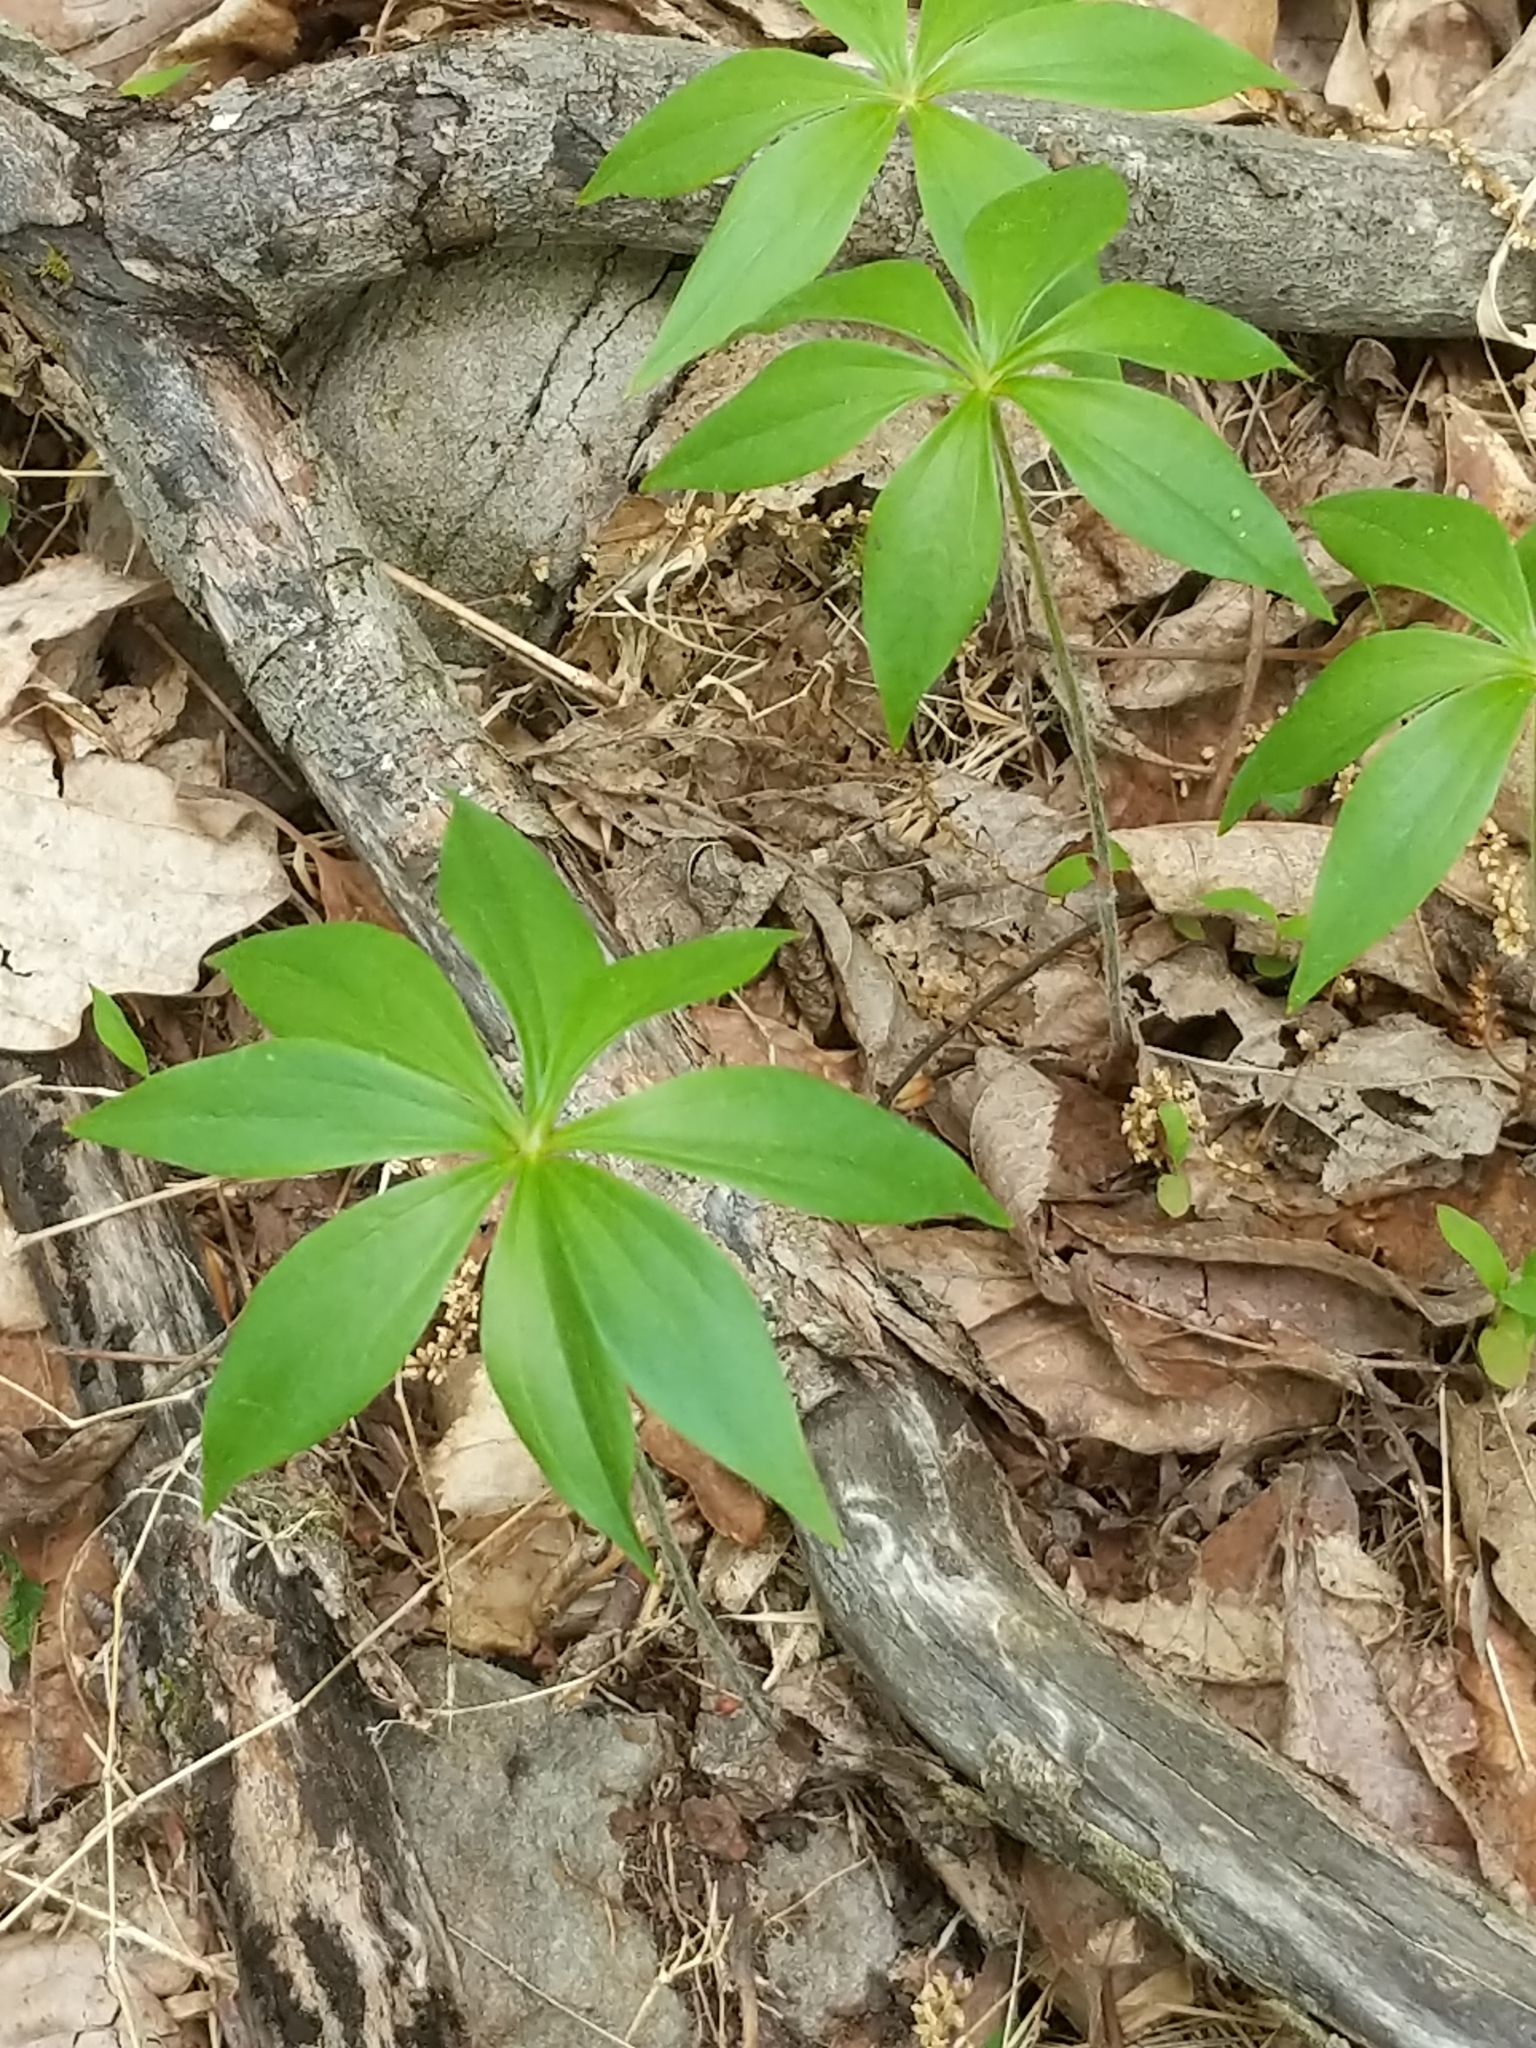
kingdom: Plantae
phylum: Tracheophyta
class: Liliopsida
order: Liliales
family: Liliaceae
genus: Medeola
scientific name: Medeola virginiana
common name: Indian cucumber-root
